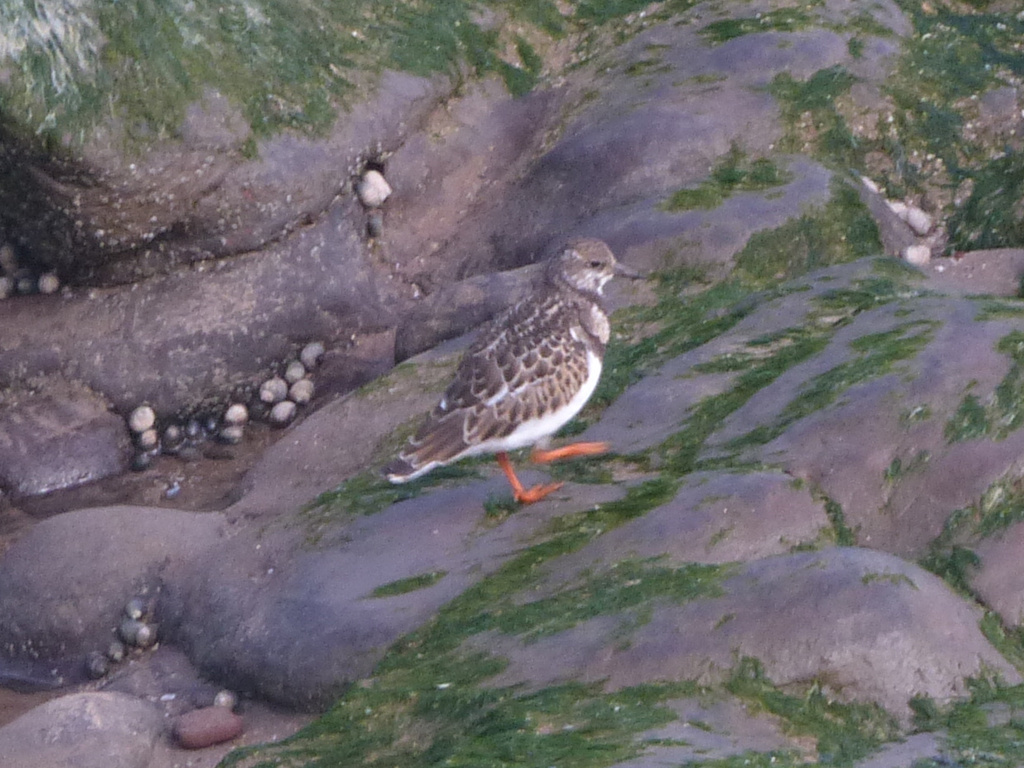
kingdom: Animalia
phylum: Chordata
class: Aves
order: Charadriiformes
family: Scolopacidae
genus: Arenaria
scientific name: Arenaria interpres
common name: Ruddy turnstone
